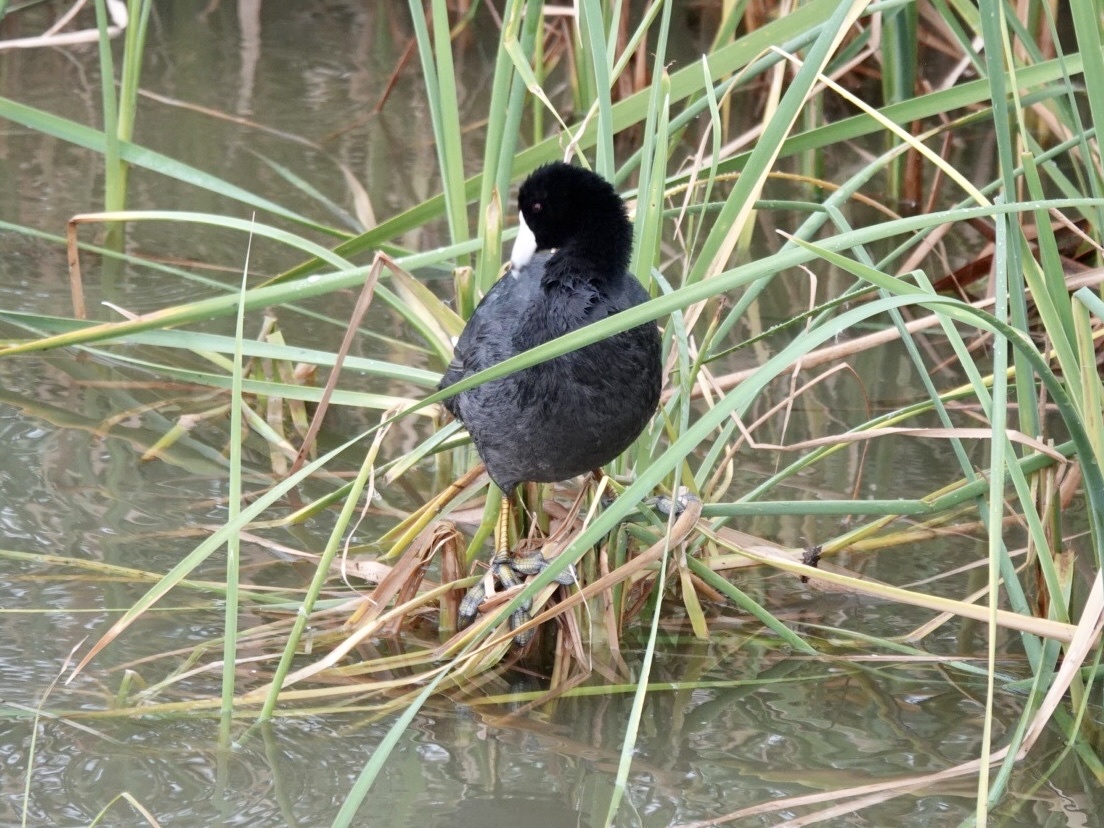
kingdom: Animalia
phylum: Chordata
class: Aves
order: Gruiformes
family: Rallidae
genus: Fulica
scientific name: Fulica americana
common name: American coot
